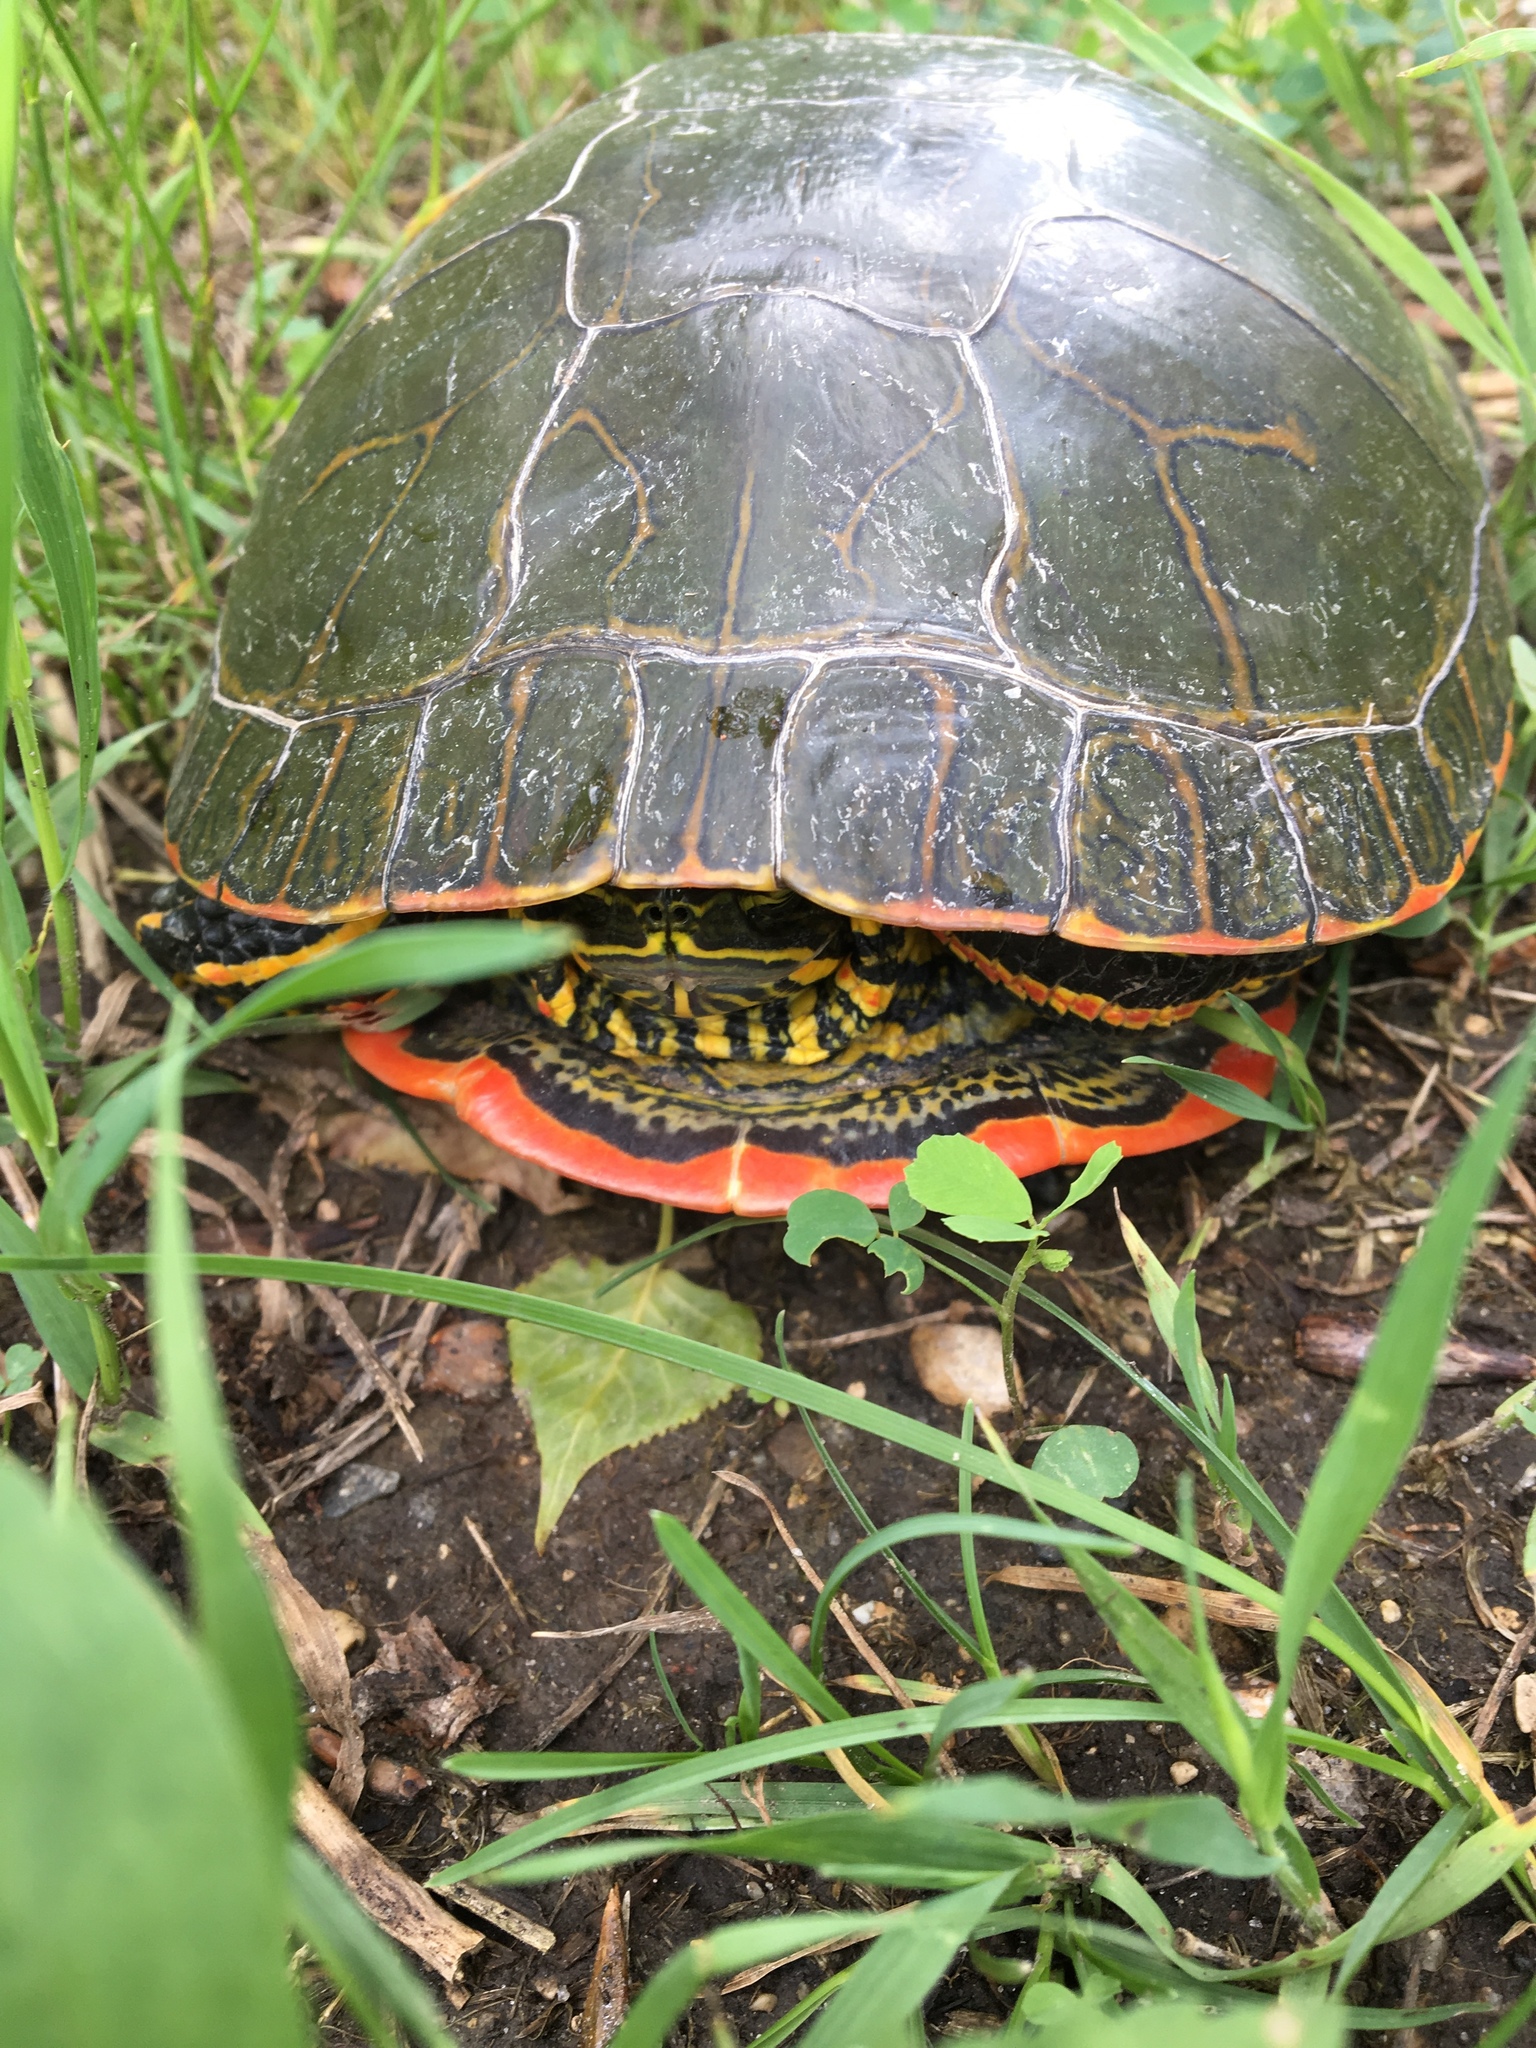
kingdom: Animalia
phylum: Chordata
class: Testudines
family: Emydidae
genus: Chrysemys
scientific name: Chrysemys picta
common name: Painted turtle
